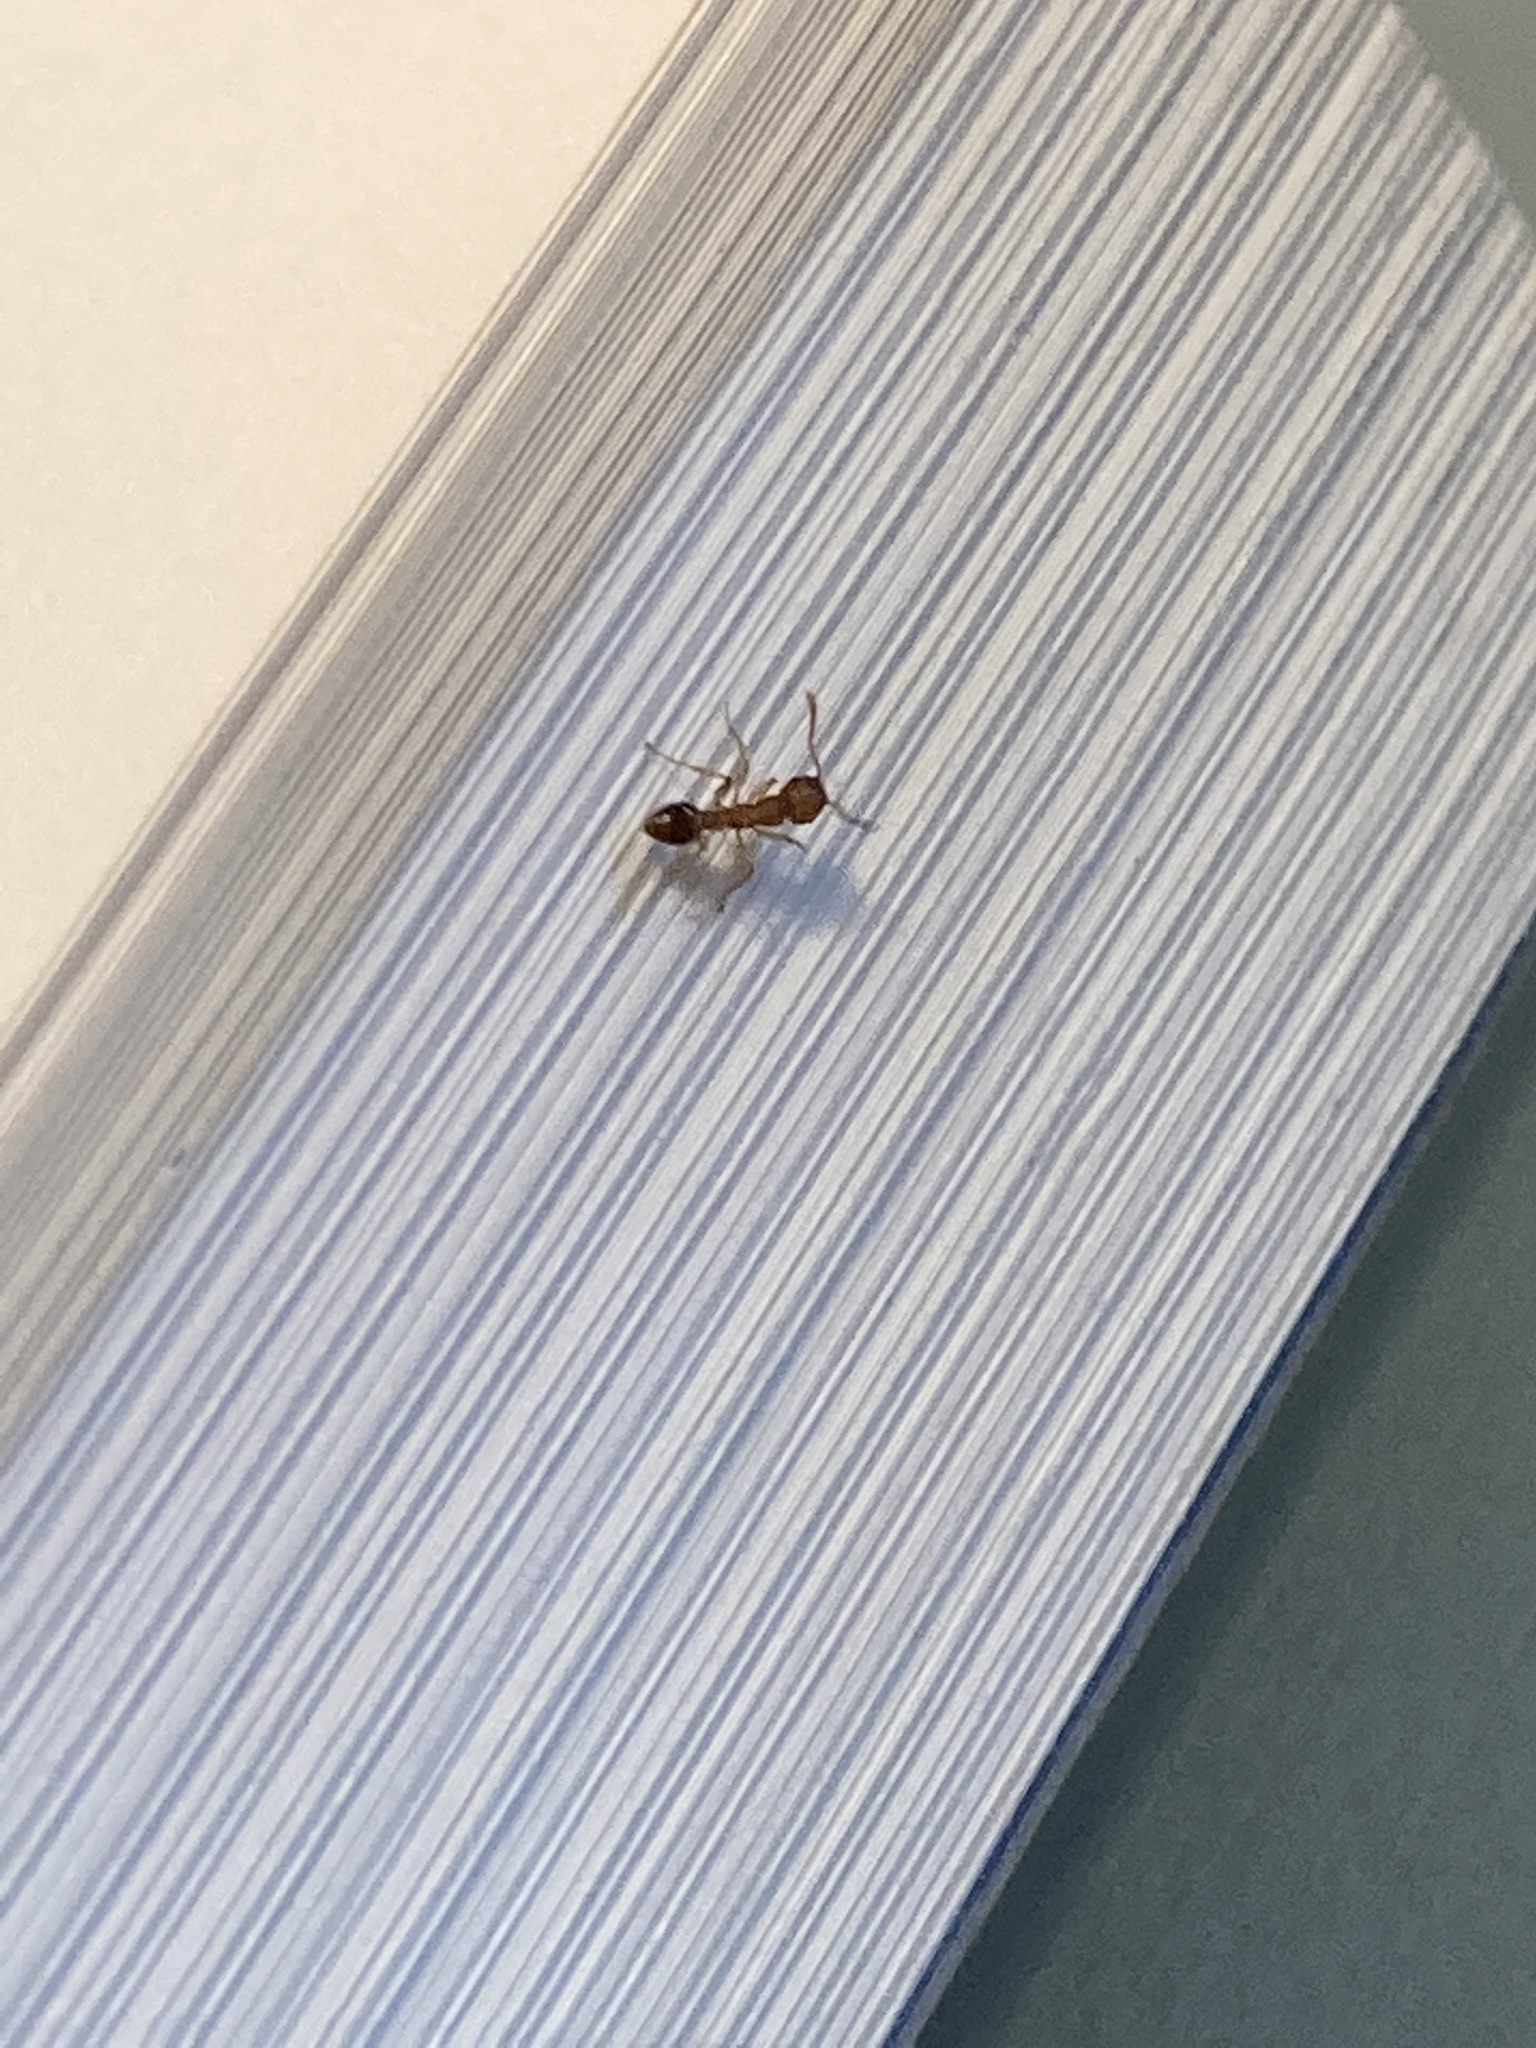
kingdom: Animalia
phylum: Arthropoda
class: Insecta
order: Hymenoptera
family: Formicidae
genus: Tetramorium
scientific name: Tetramorium bicarinatum
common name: Guinea ant
